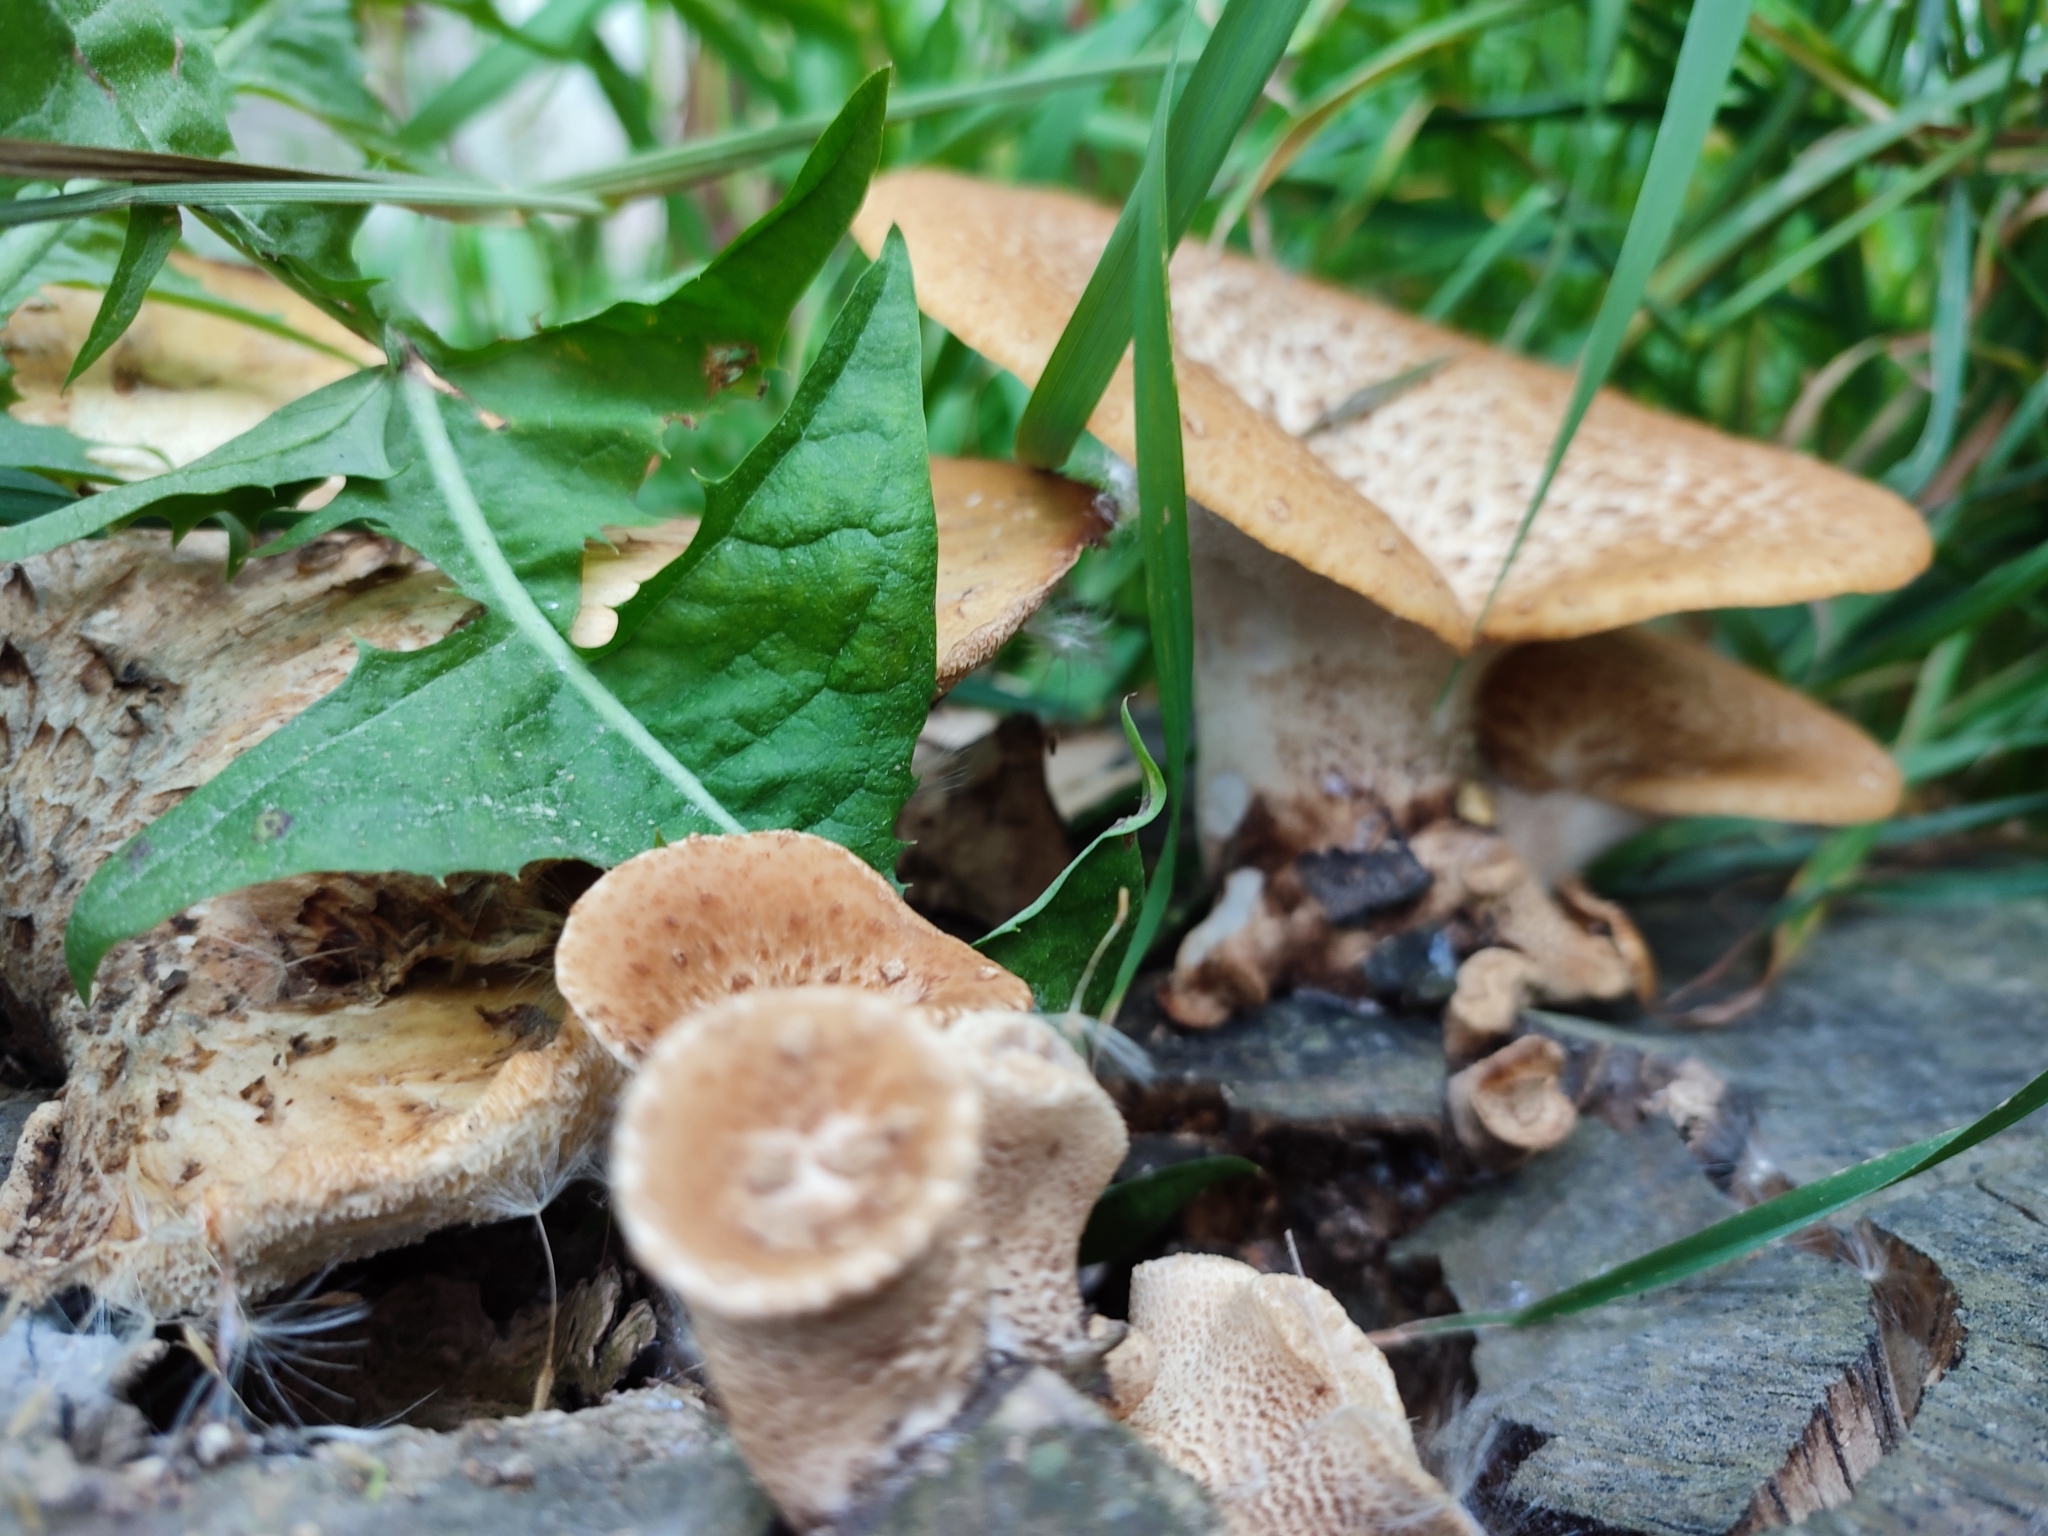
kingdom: Fungi
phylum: Basidiomycota
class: Agaricomycetes
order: Polyporales
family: Polyporaceae
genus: Cerioporus
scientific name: Cerioporus squamosus
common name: Dryad's saddle
